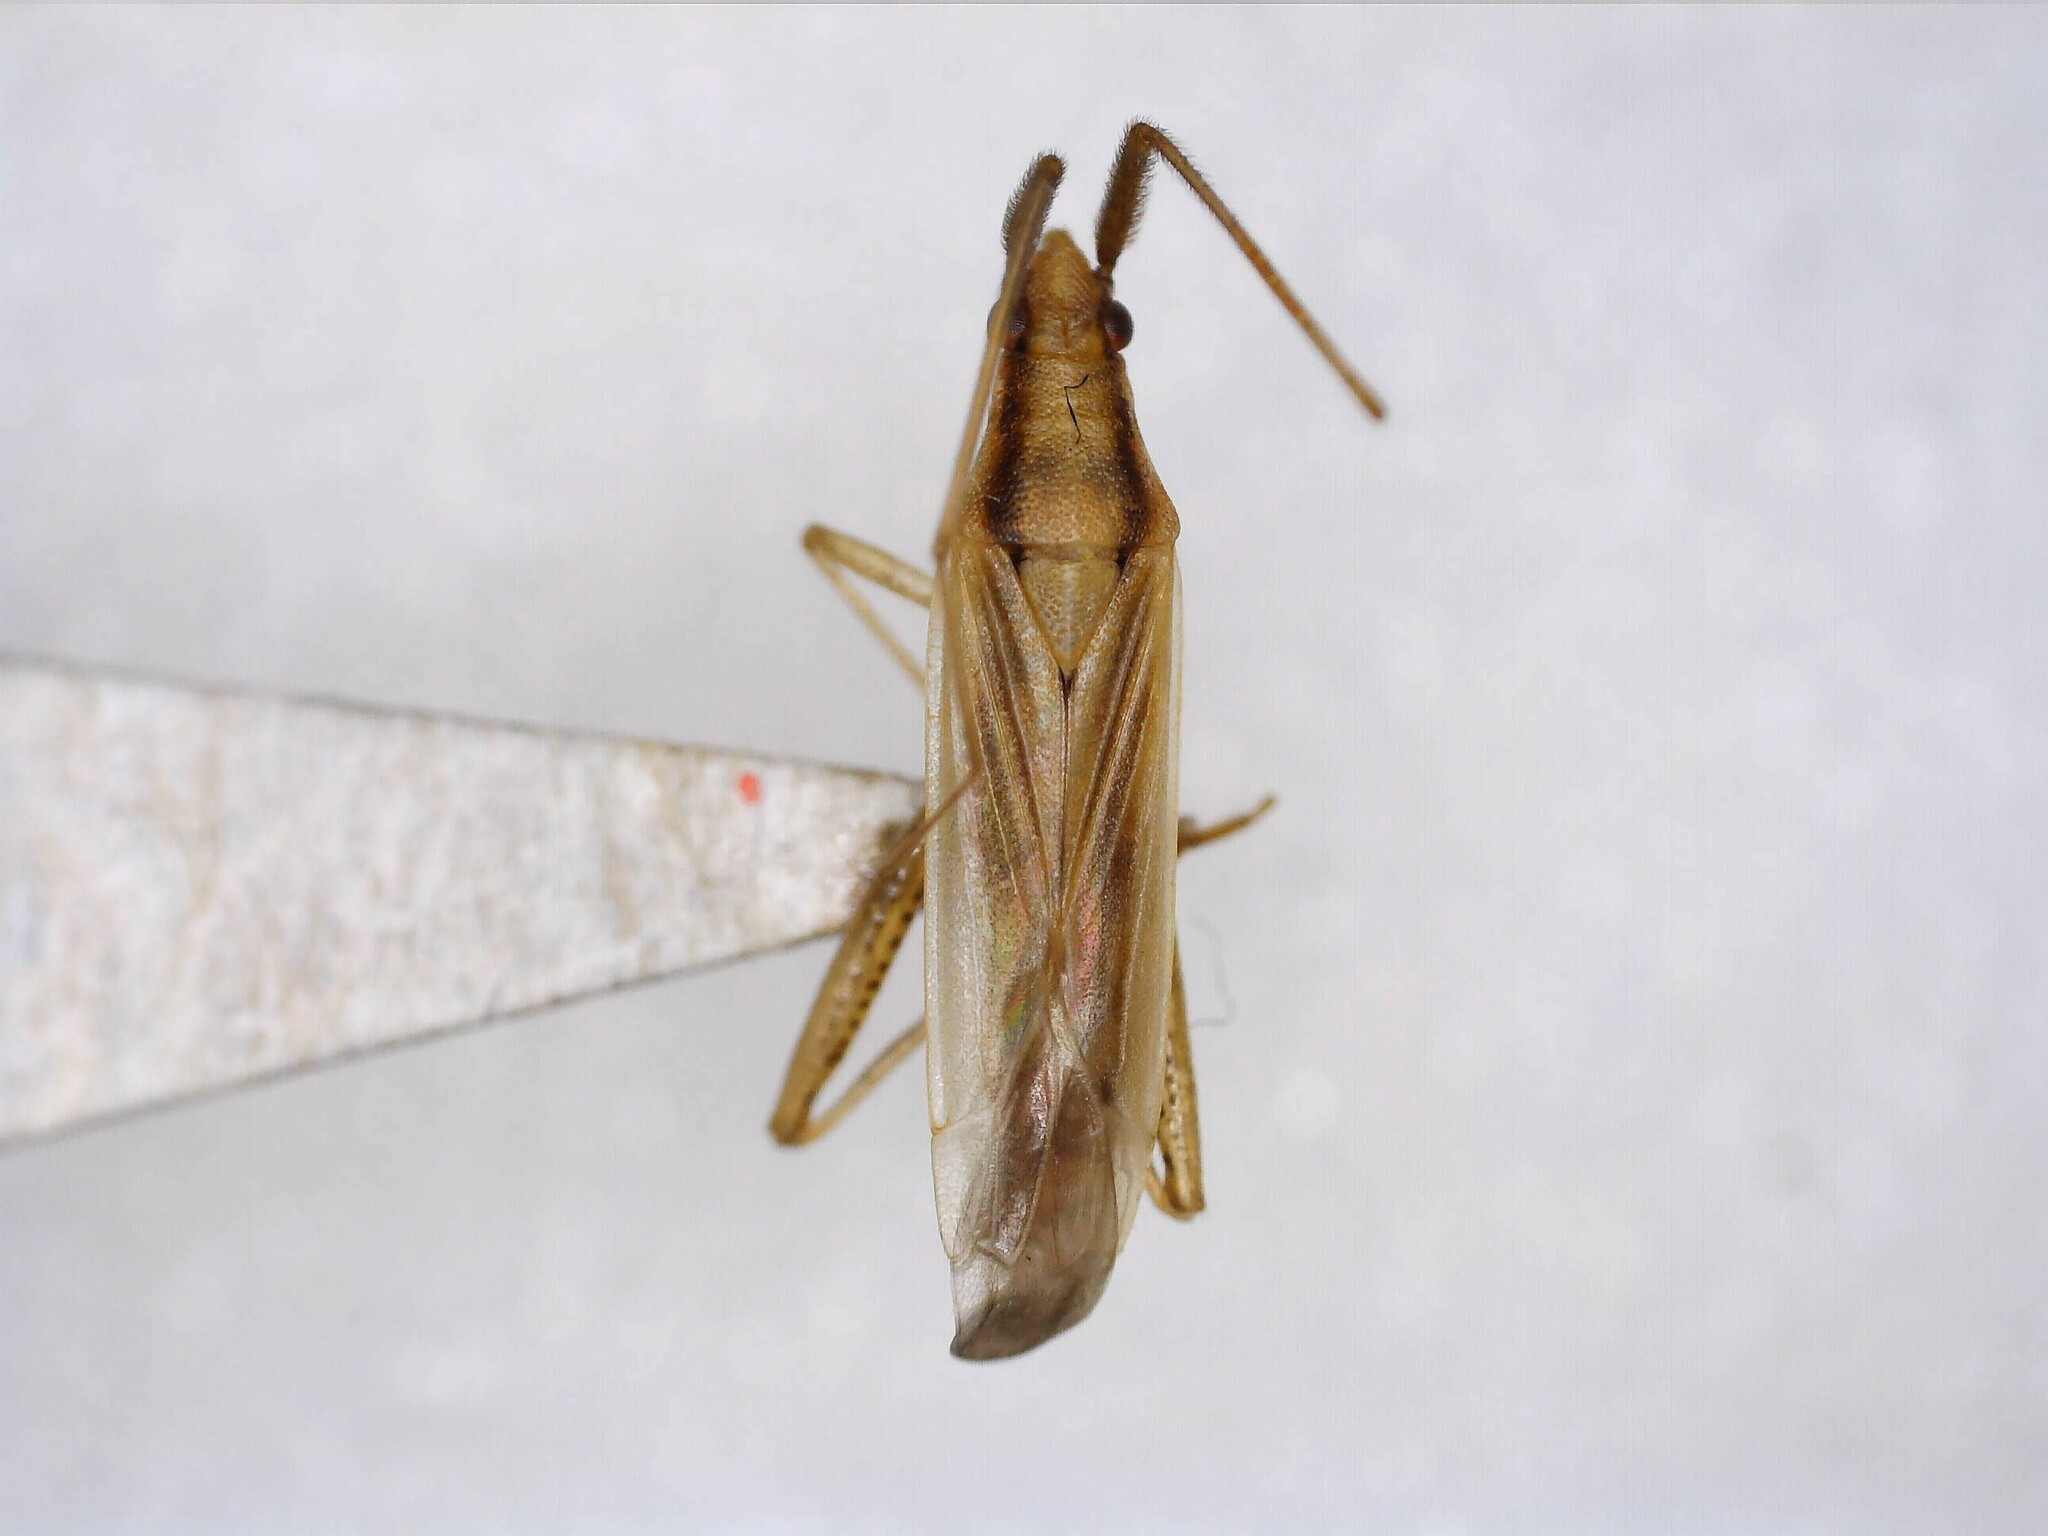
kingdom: Animalia
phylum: Arthropoda
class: Insecta
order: Hemiptera
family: Miridae
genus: Stenodema
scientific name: Stenodema laevigata
